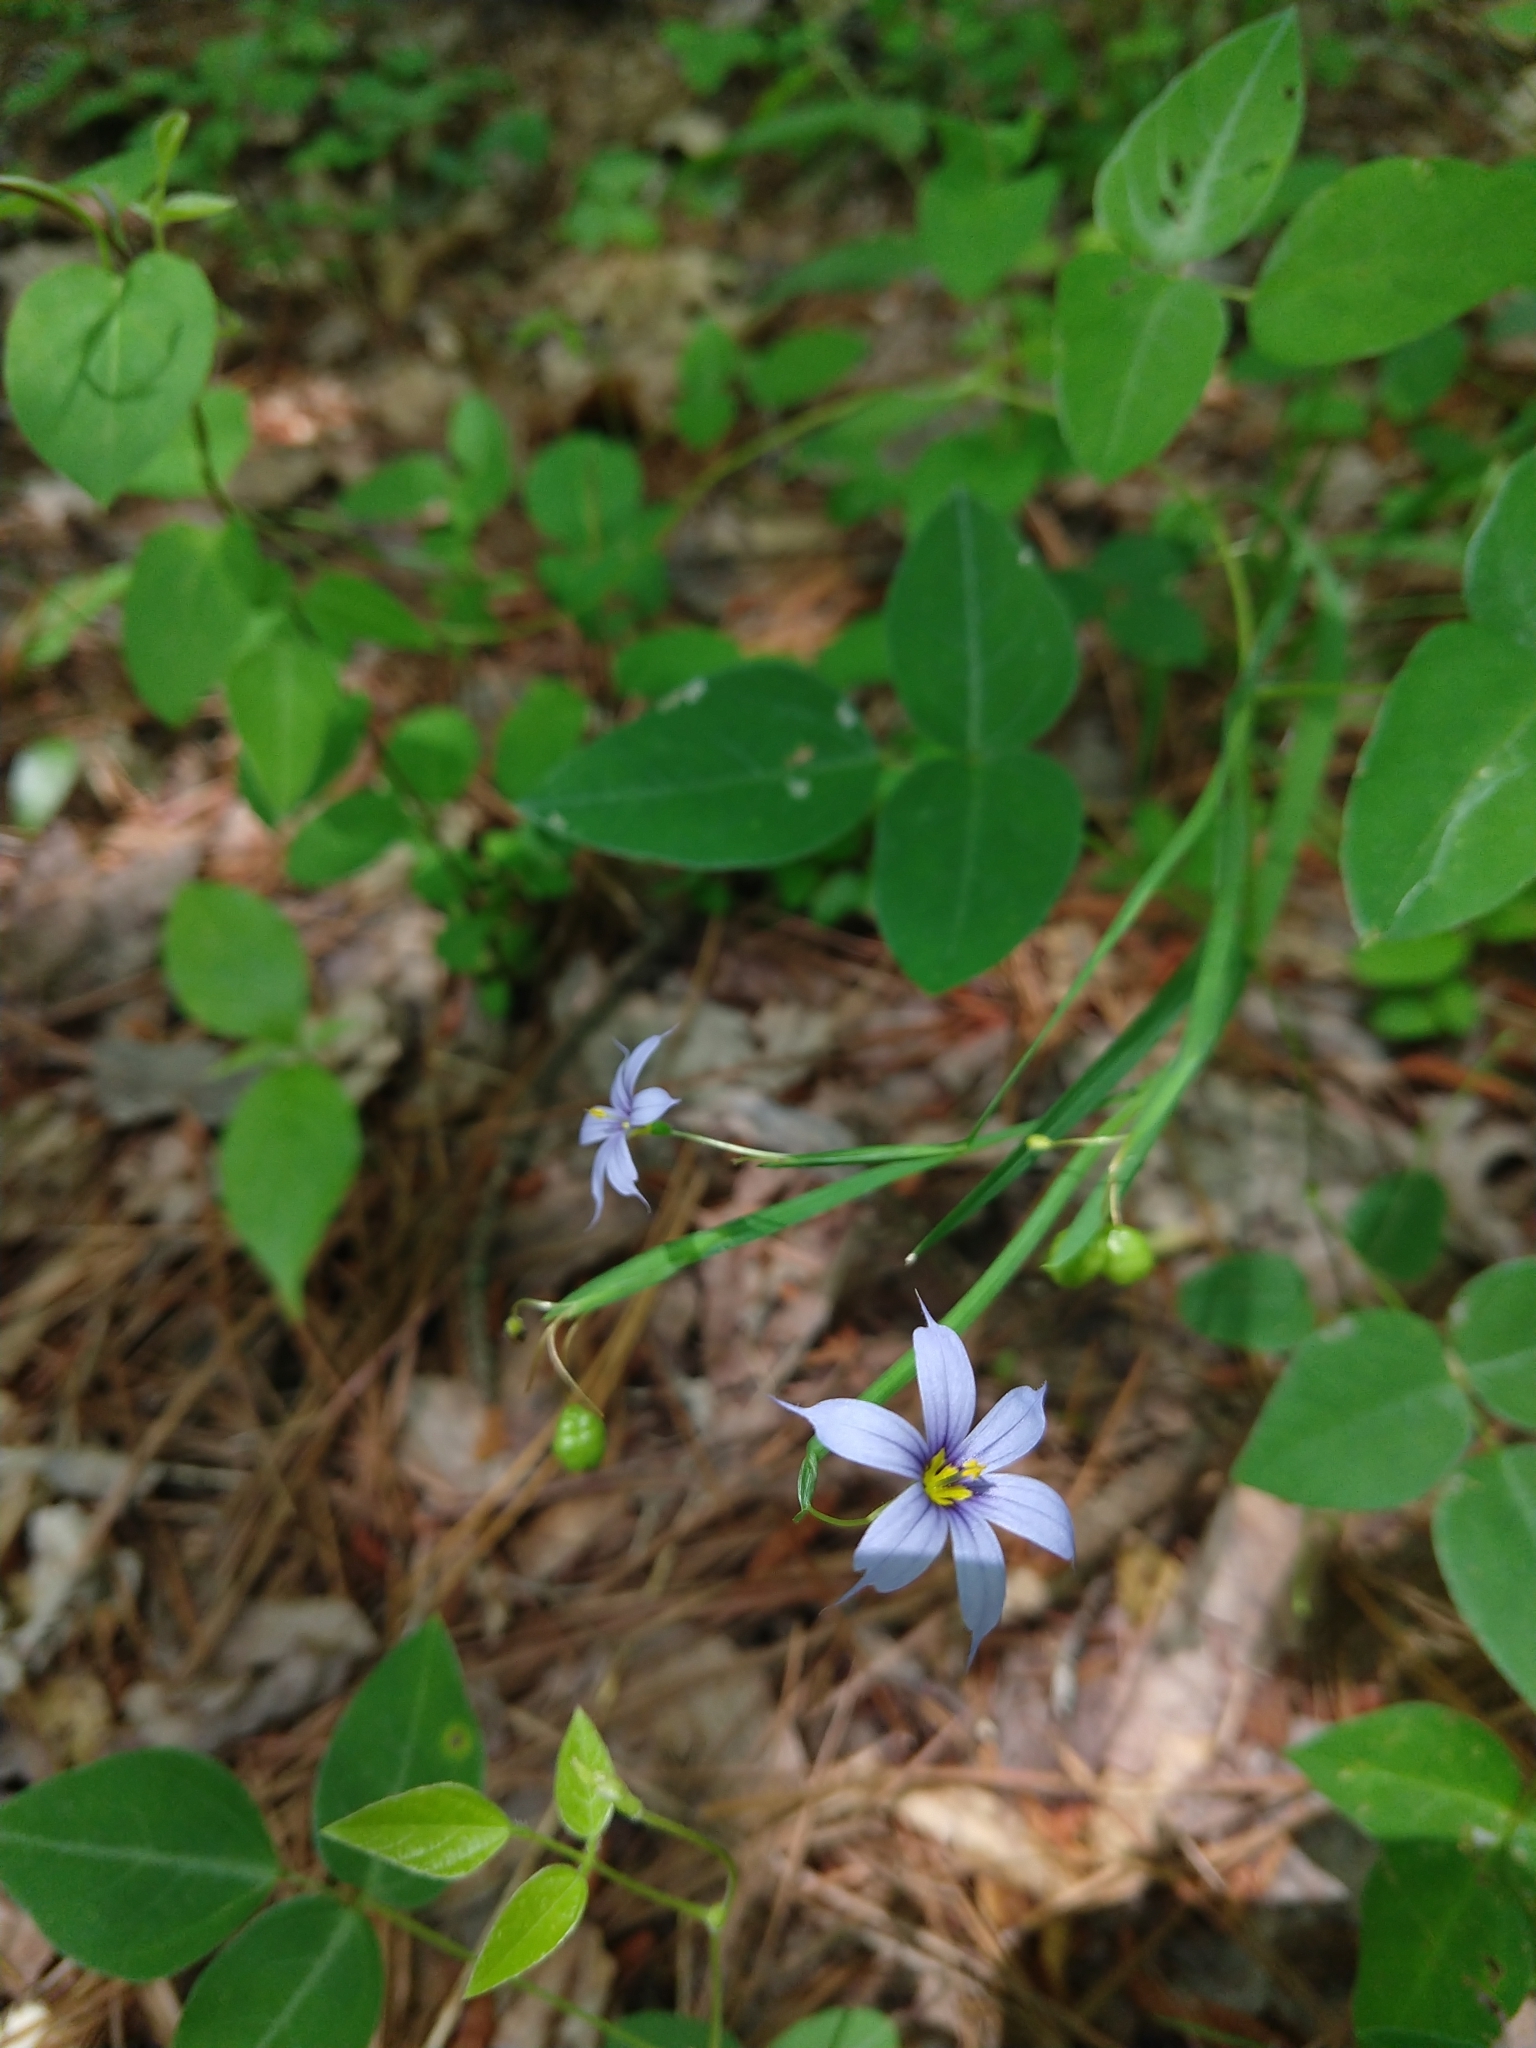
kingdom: Plantae
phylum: Tracheophyta
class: Liliopsida
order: Asparagales
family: Iridaceae
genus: Sisyrinchium
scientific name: Sisyrinchium angustifolium
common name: Narrow-leaf blue-eyed-grass
